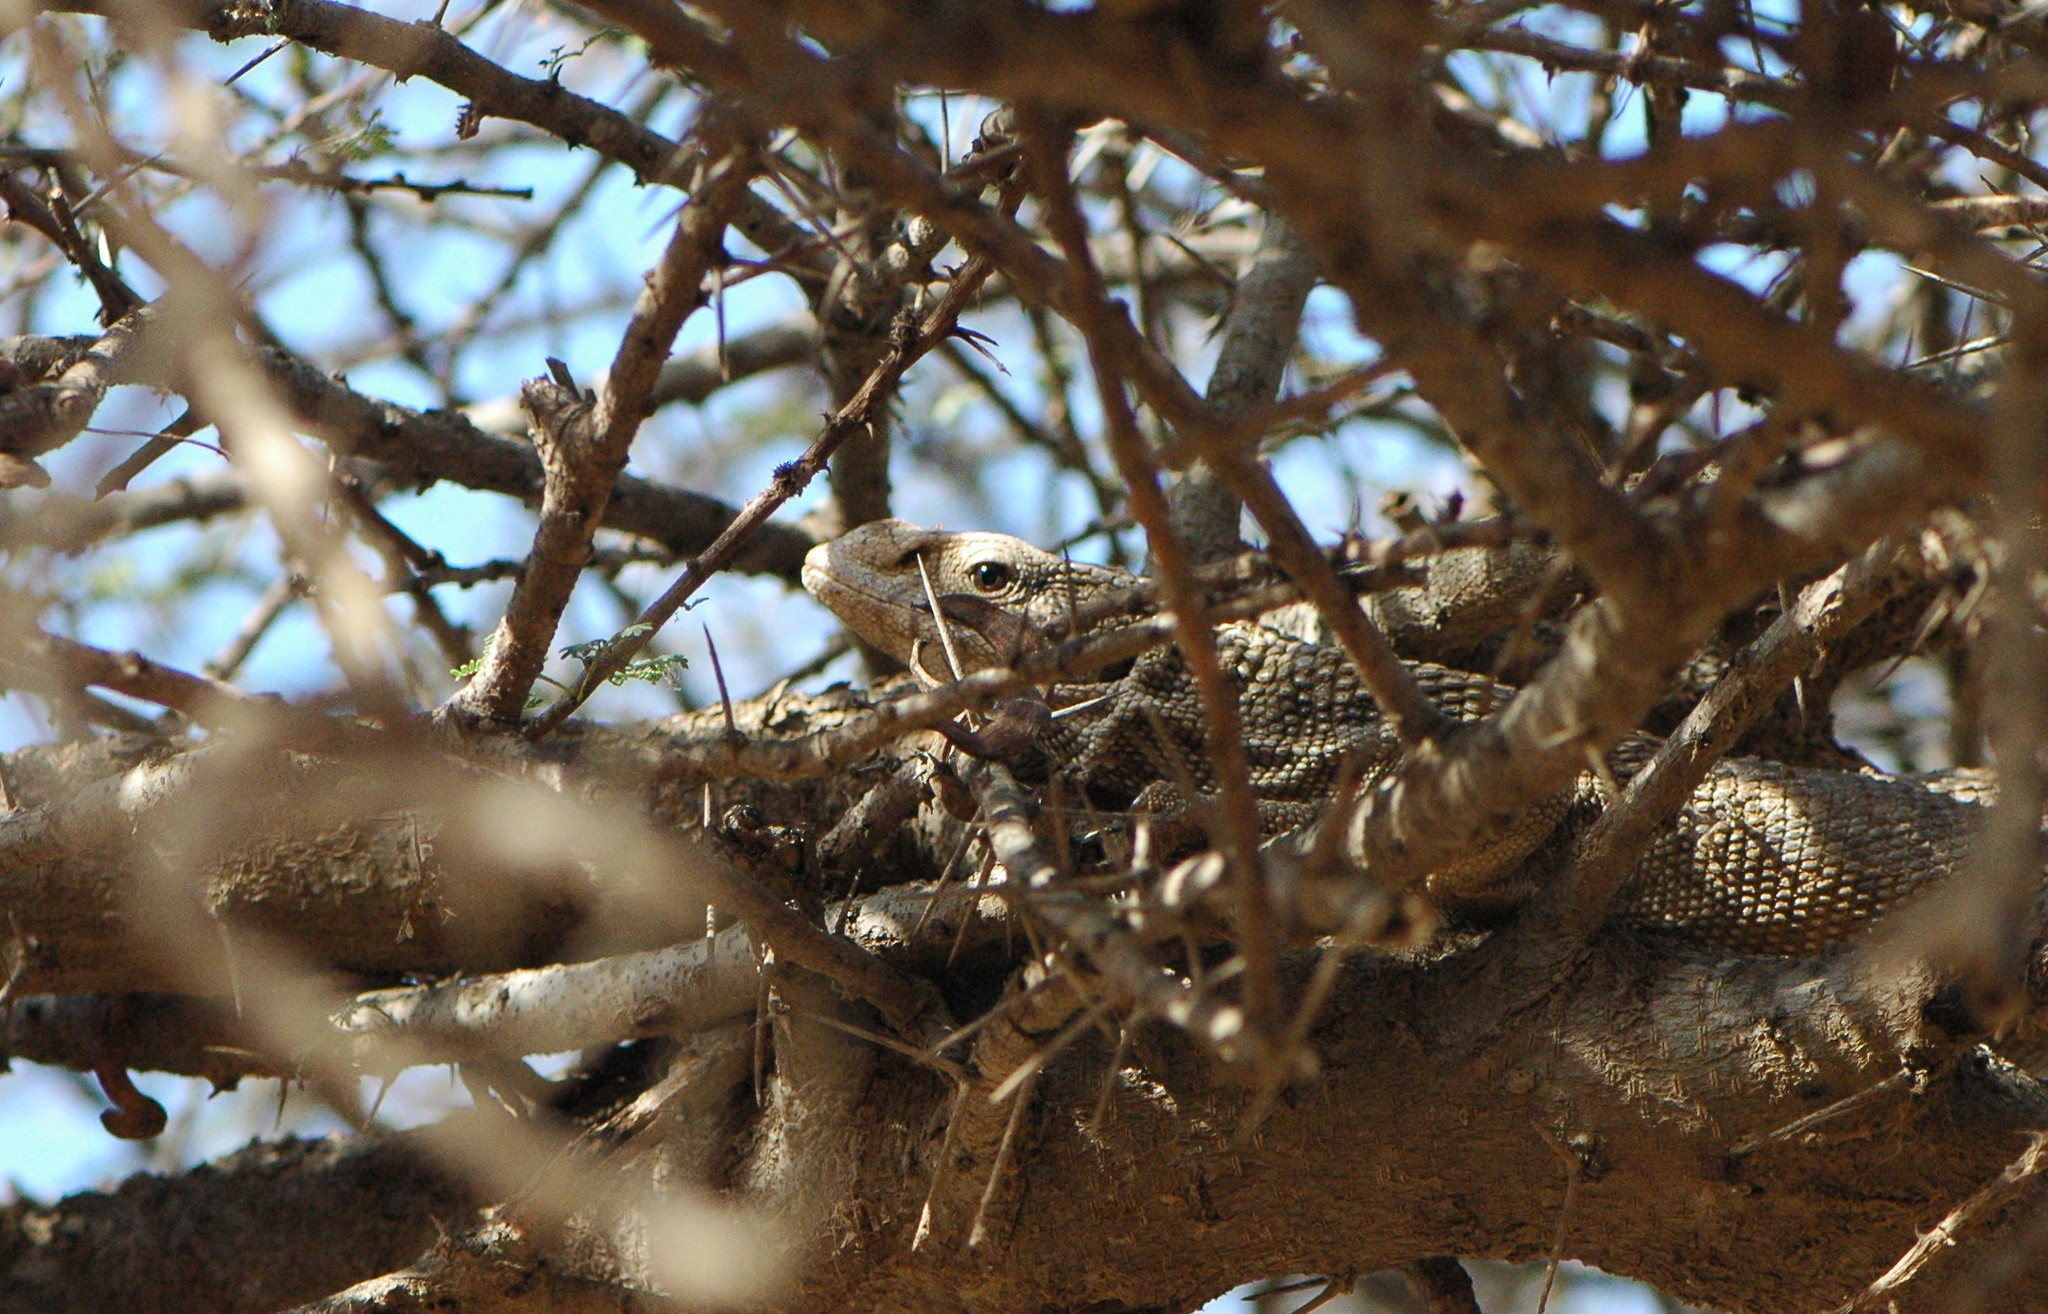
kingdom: Animalia
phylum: Chordata
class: Squamata
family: Varanidae
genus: Varanus
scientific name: Varanus exanthematicus
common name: Savannah monitor
